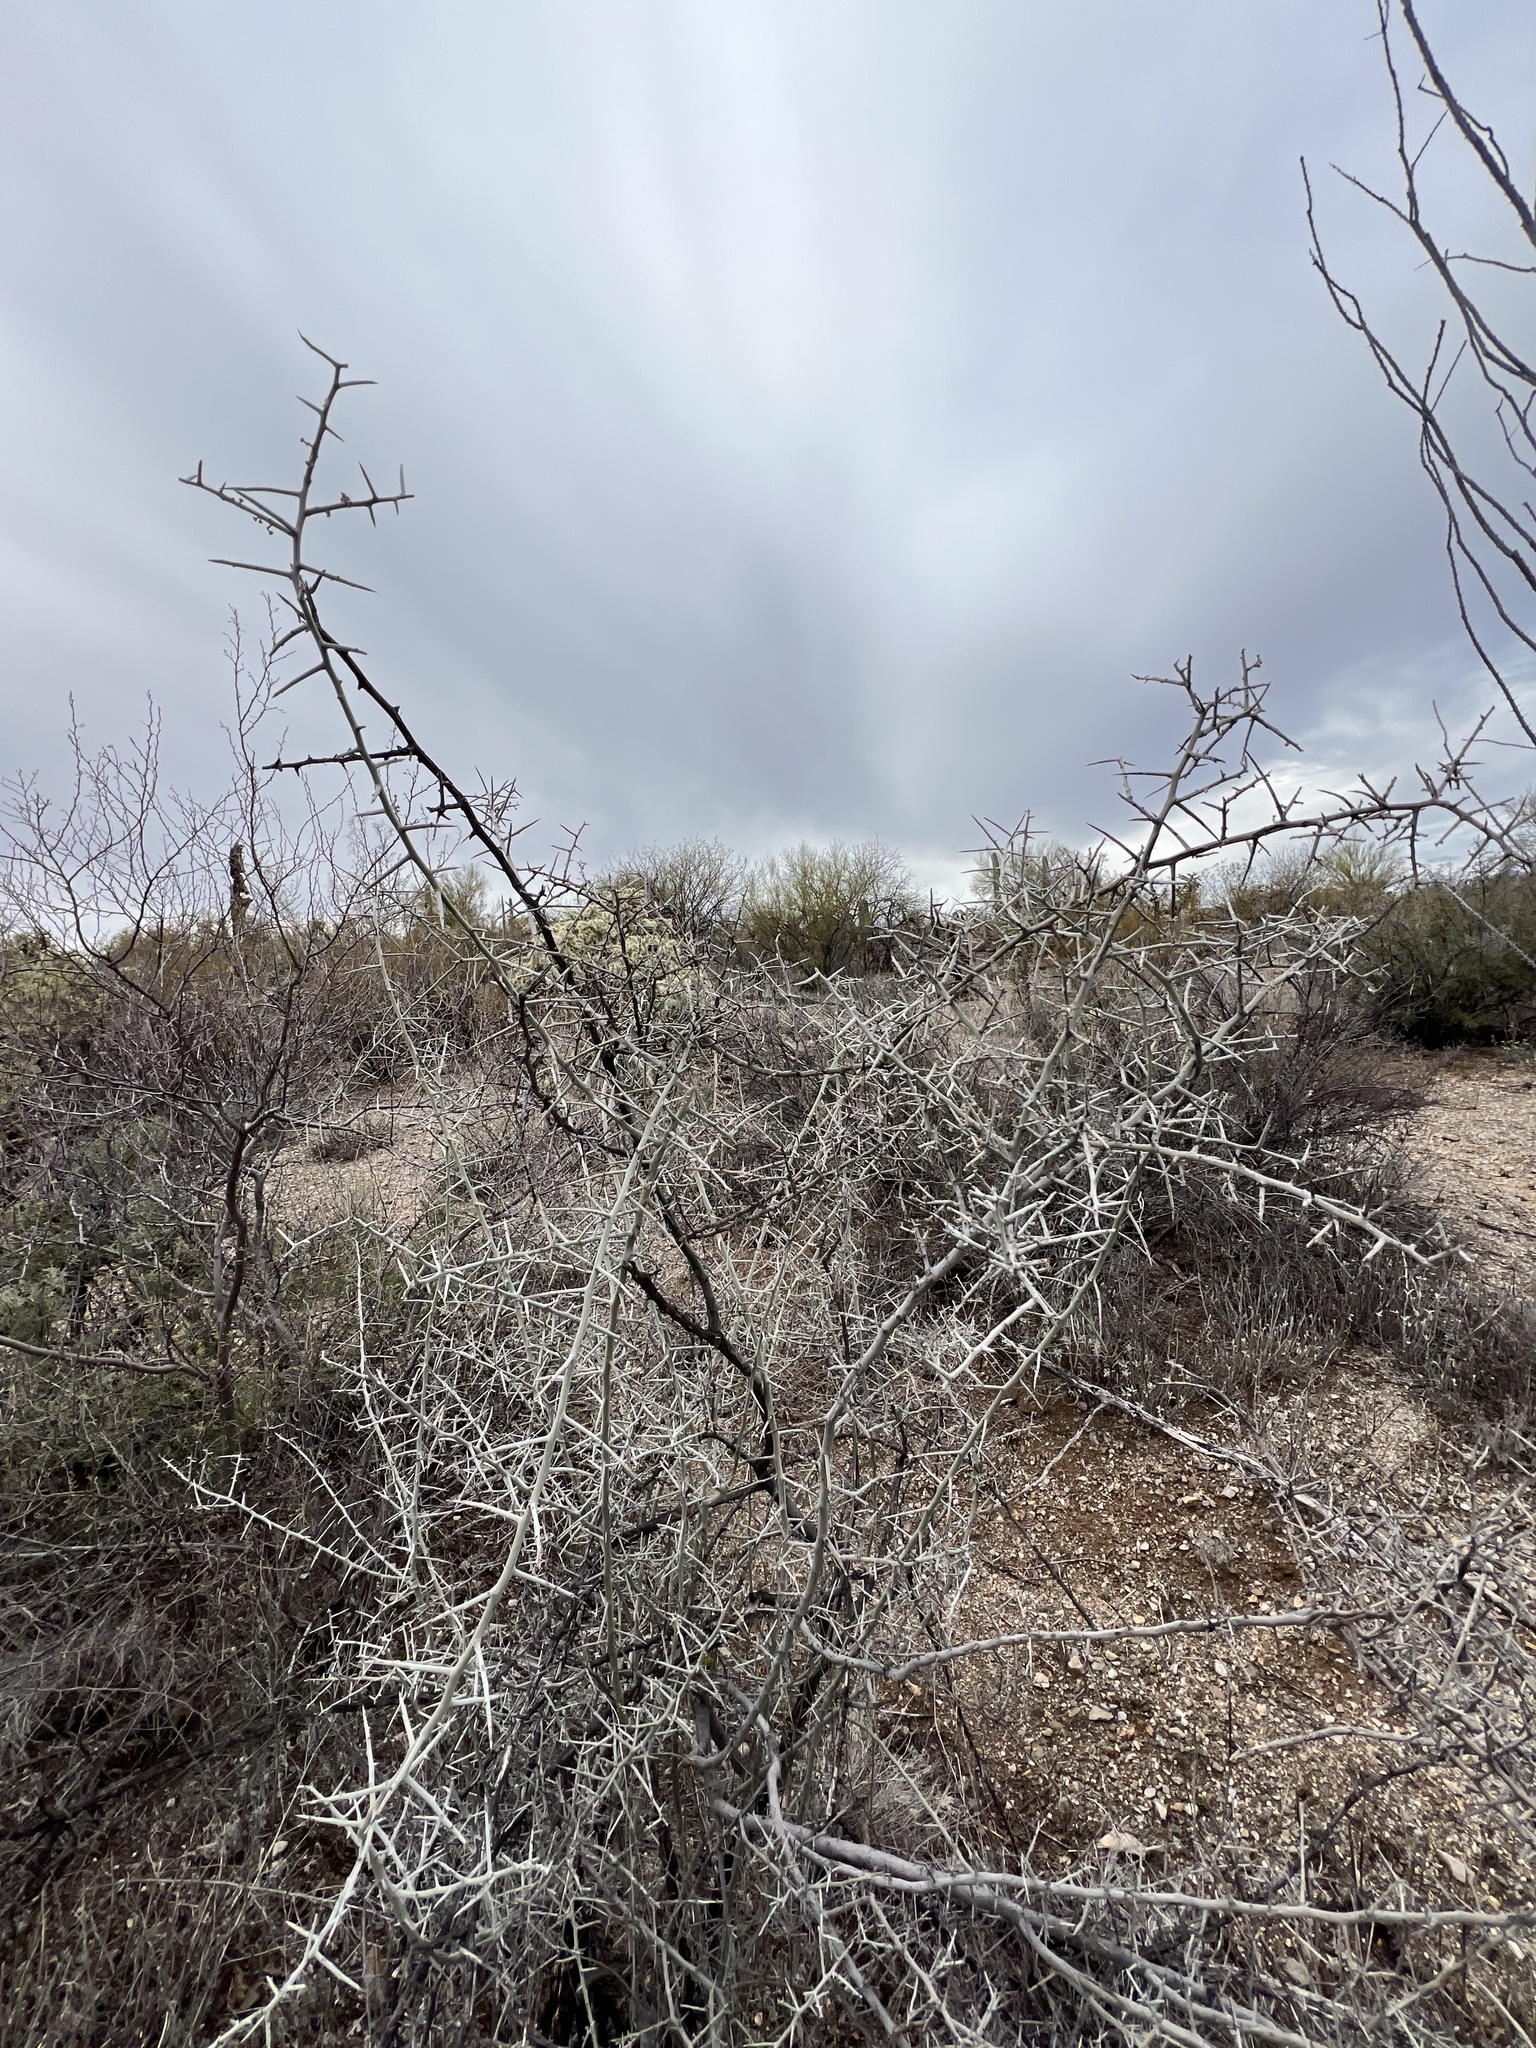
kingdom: Plantae
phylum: Tracheophyta
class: Magnoliopsida
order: Rosales
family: Rhamnaceae
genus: Sarcomphalus
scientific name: Sarcomphalus obtusifolius
